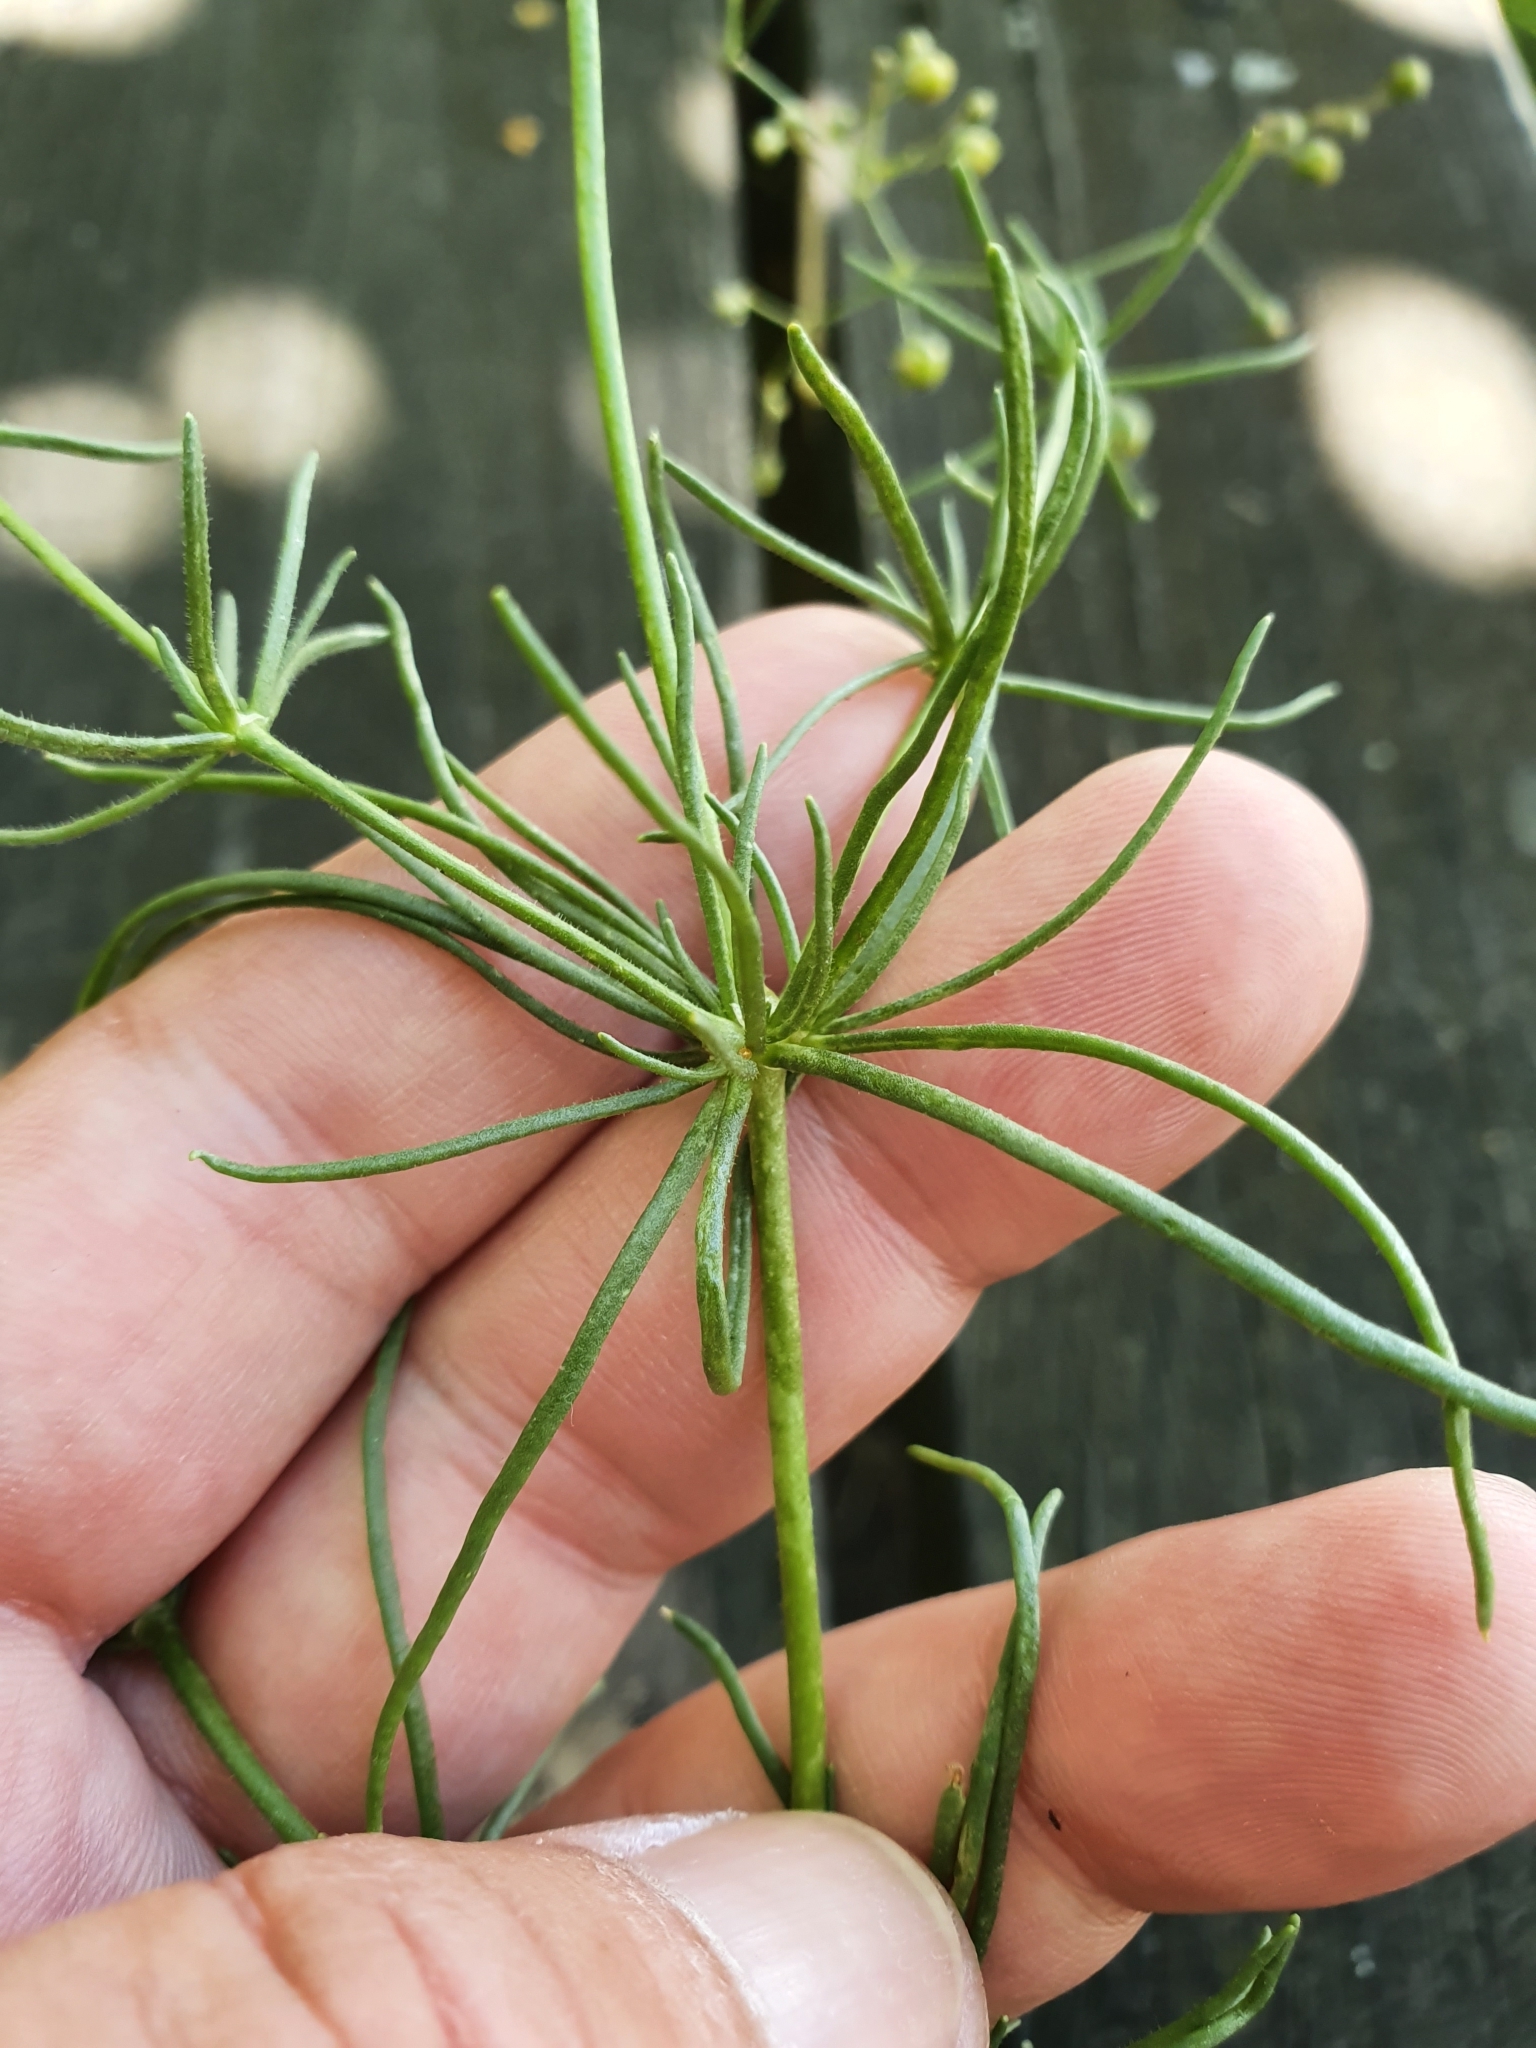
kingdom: Plantae
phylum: Tracheophyta
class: Magnoliopsida
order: Caryophyllales
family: Caryophyllaceae
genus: Spergula
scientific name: Spergula arvensis
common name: Corn spurrey
